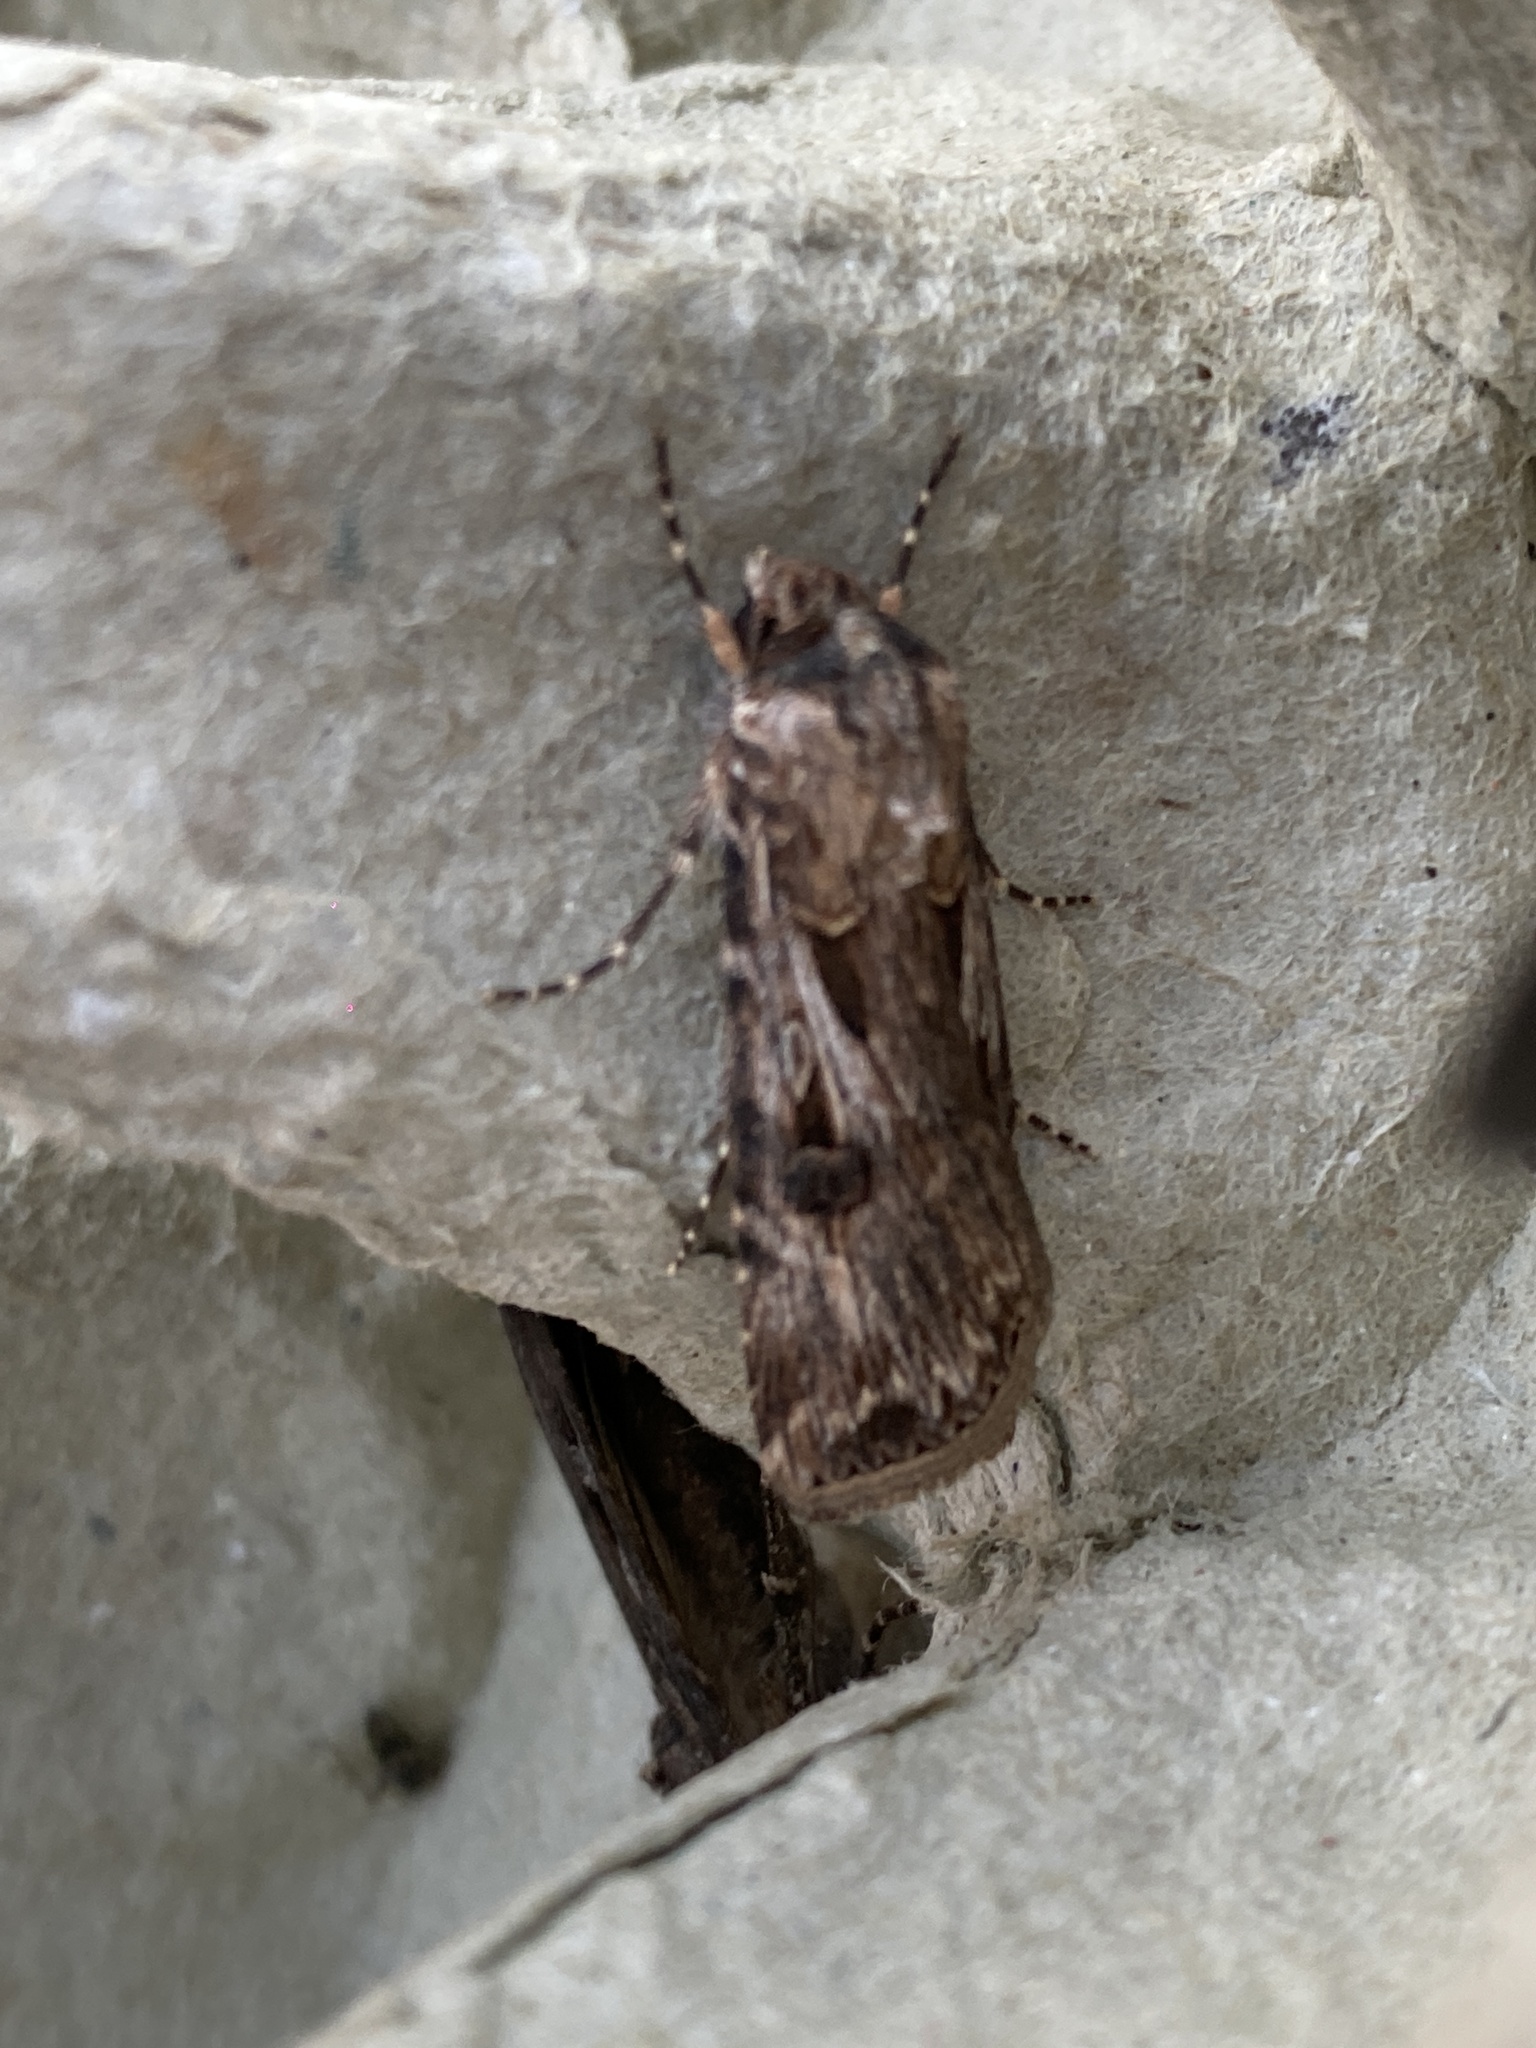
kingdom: Animalia
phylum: Arthropoda
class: Insecta
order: Lepidoptera
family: Noctuidae
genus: Agrotis
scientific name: Agrotis munda
